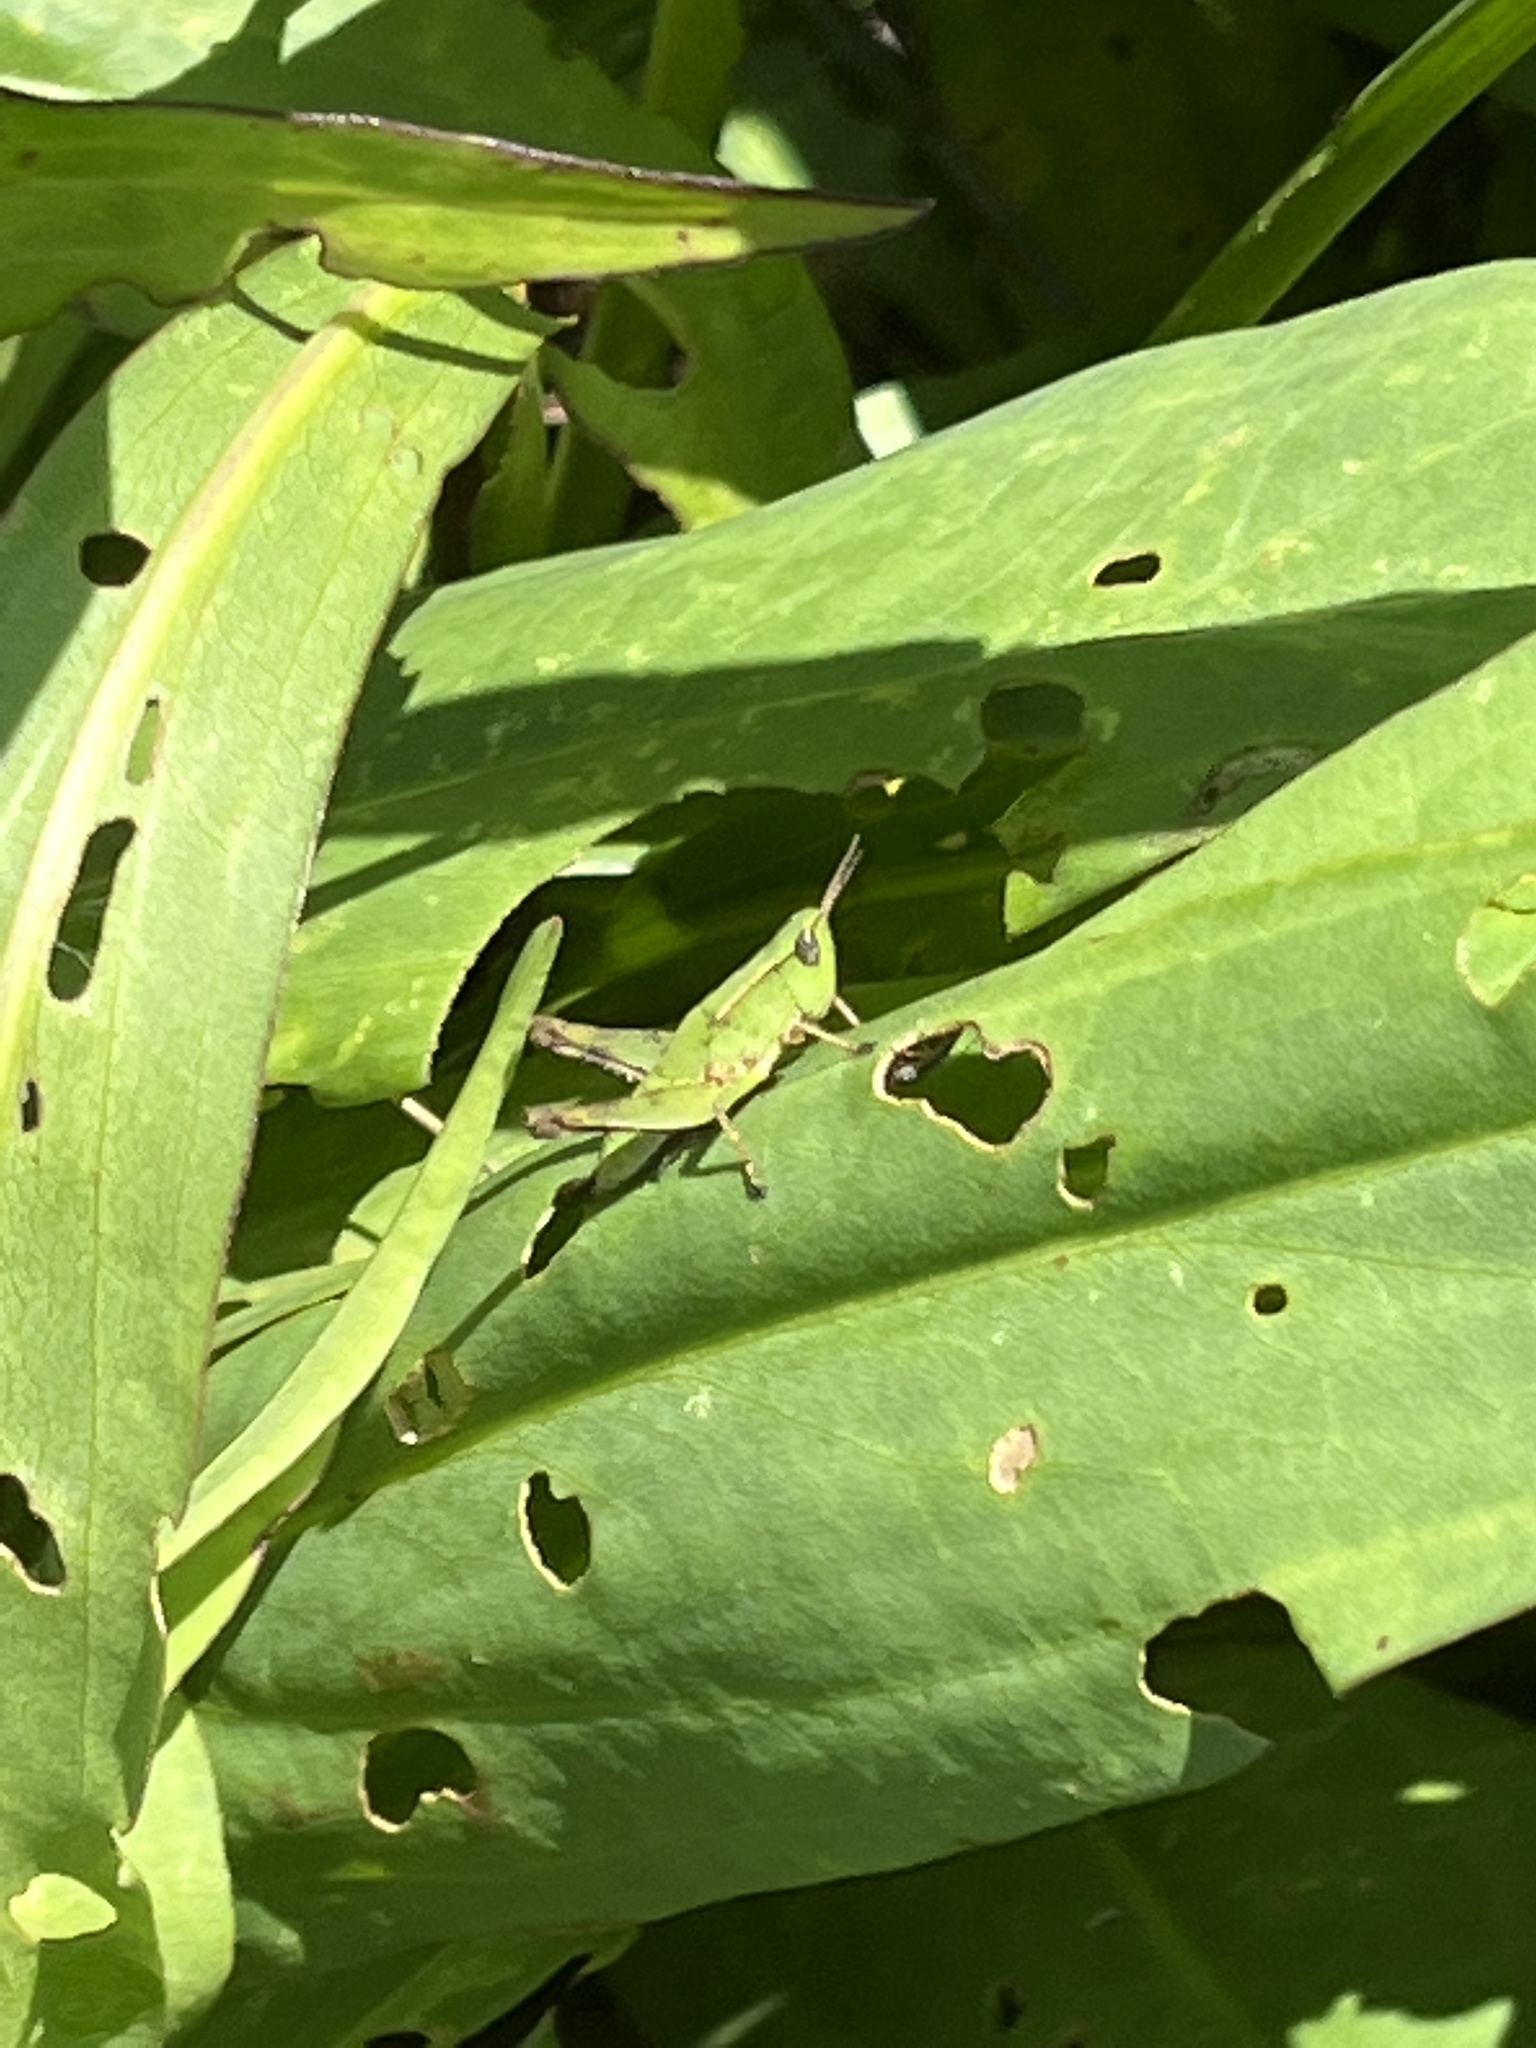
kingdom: Animalia
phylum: Arthropoda
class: Insecta
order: Orthoptera
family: Acrididae
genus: Dichromorpha
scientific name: Dichromorpha viridis
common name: Short-winged green grasshopper
